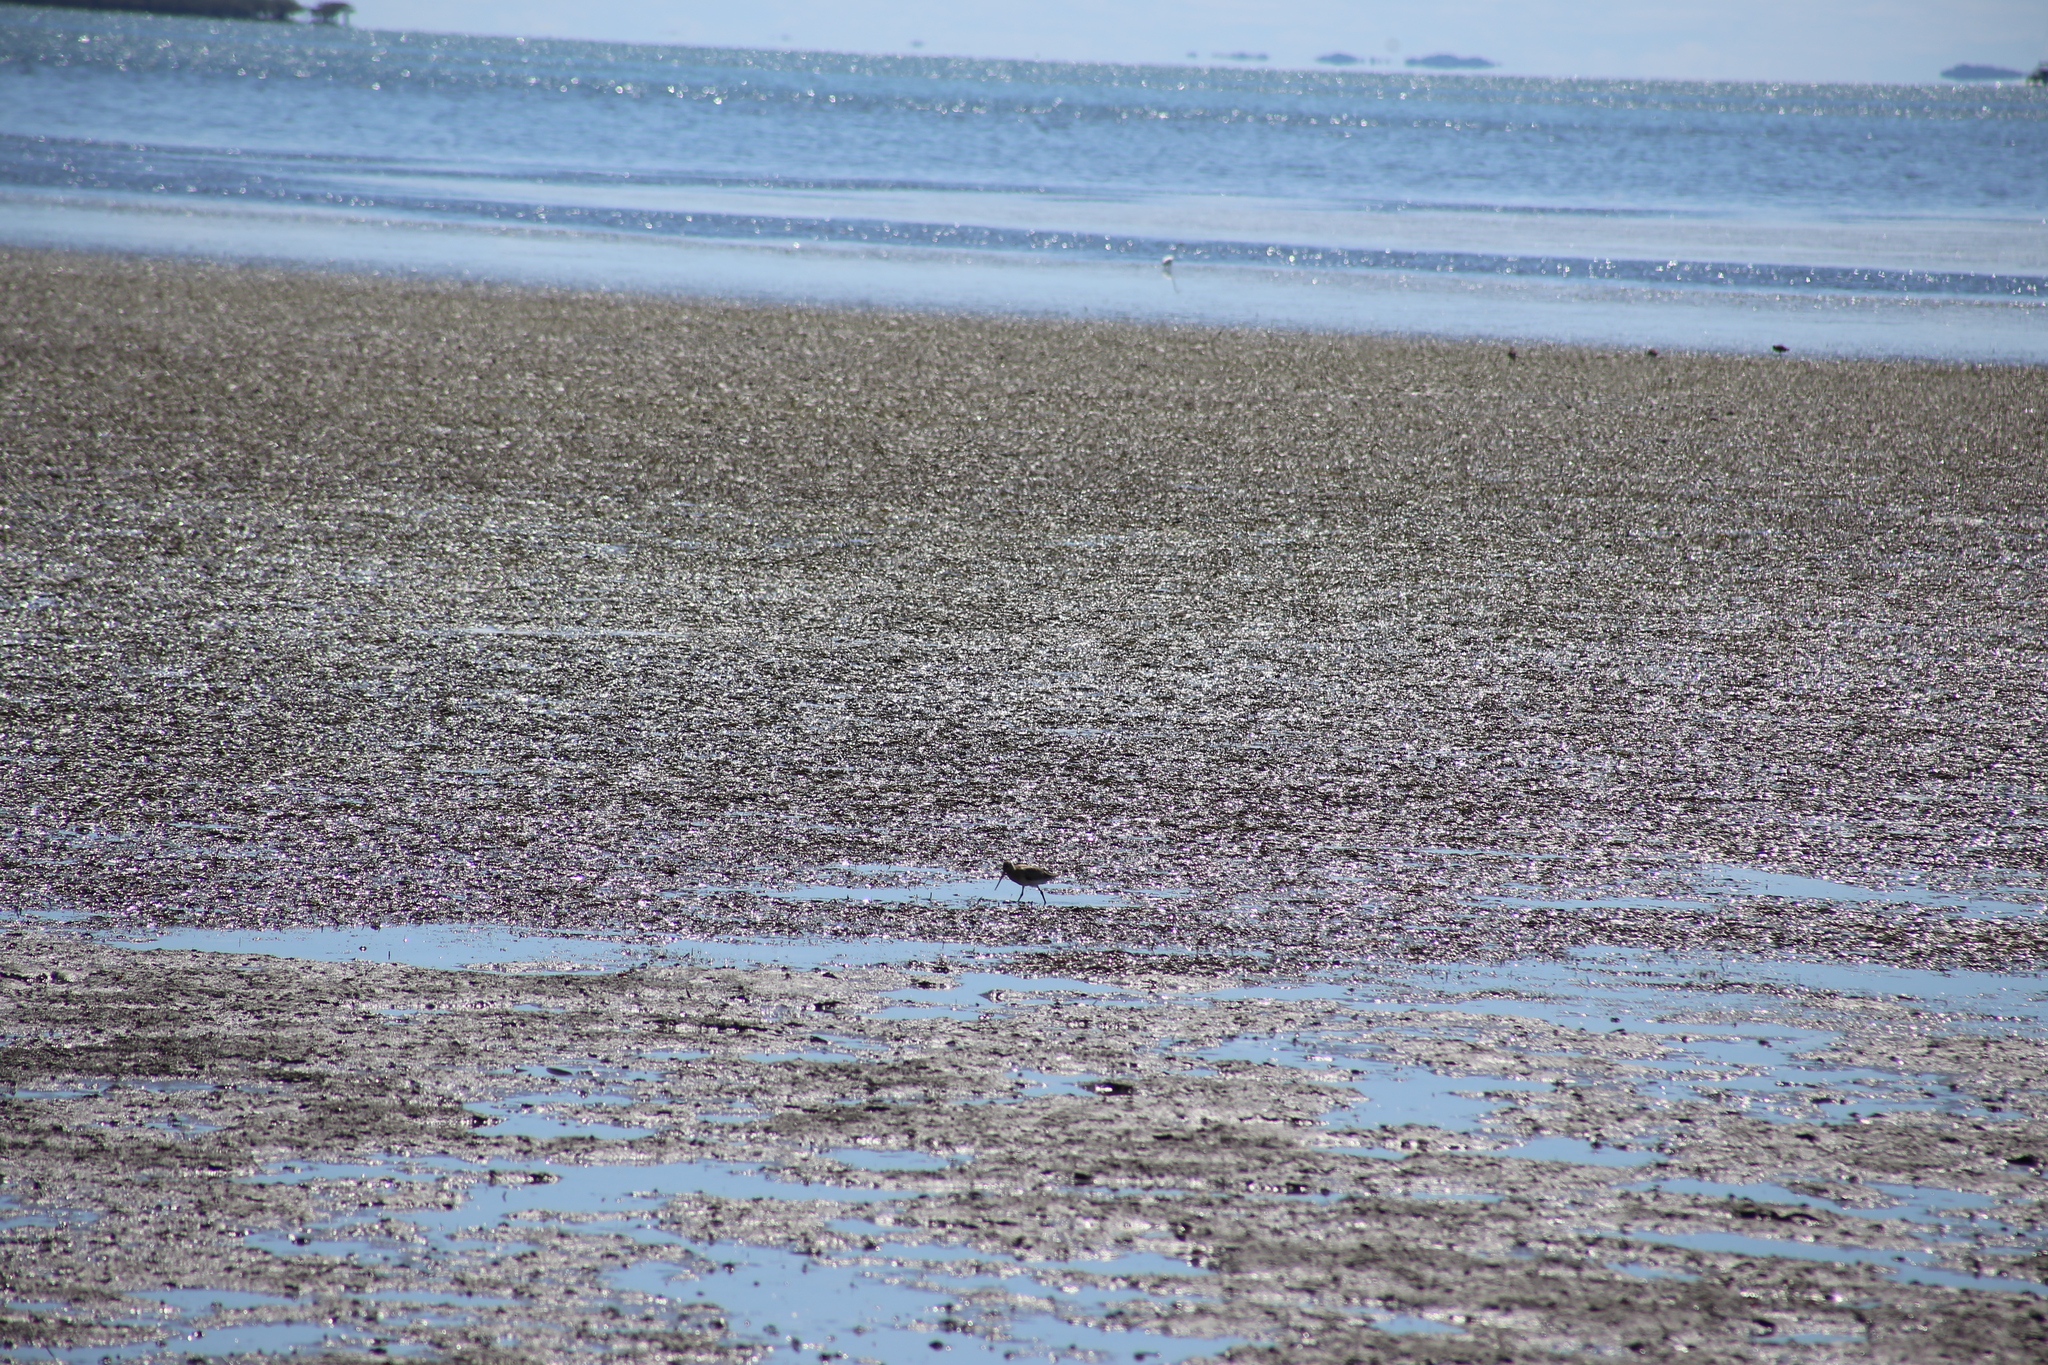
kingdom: Animalia
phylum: Chordata
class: Aves
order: Charadriiformes
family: Scolopacidae
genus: Limosa
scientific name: Limosa lapponica
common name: Bar-tailed godwit
